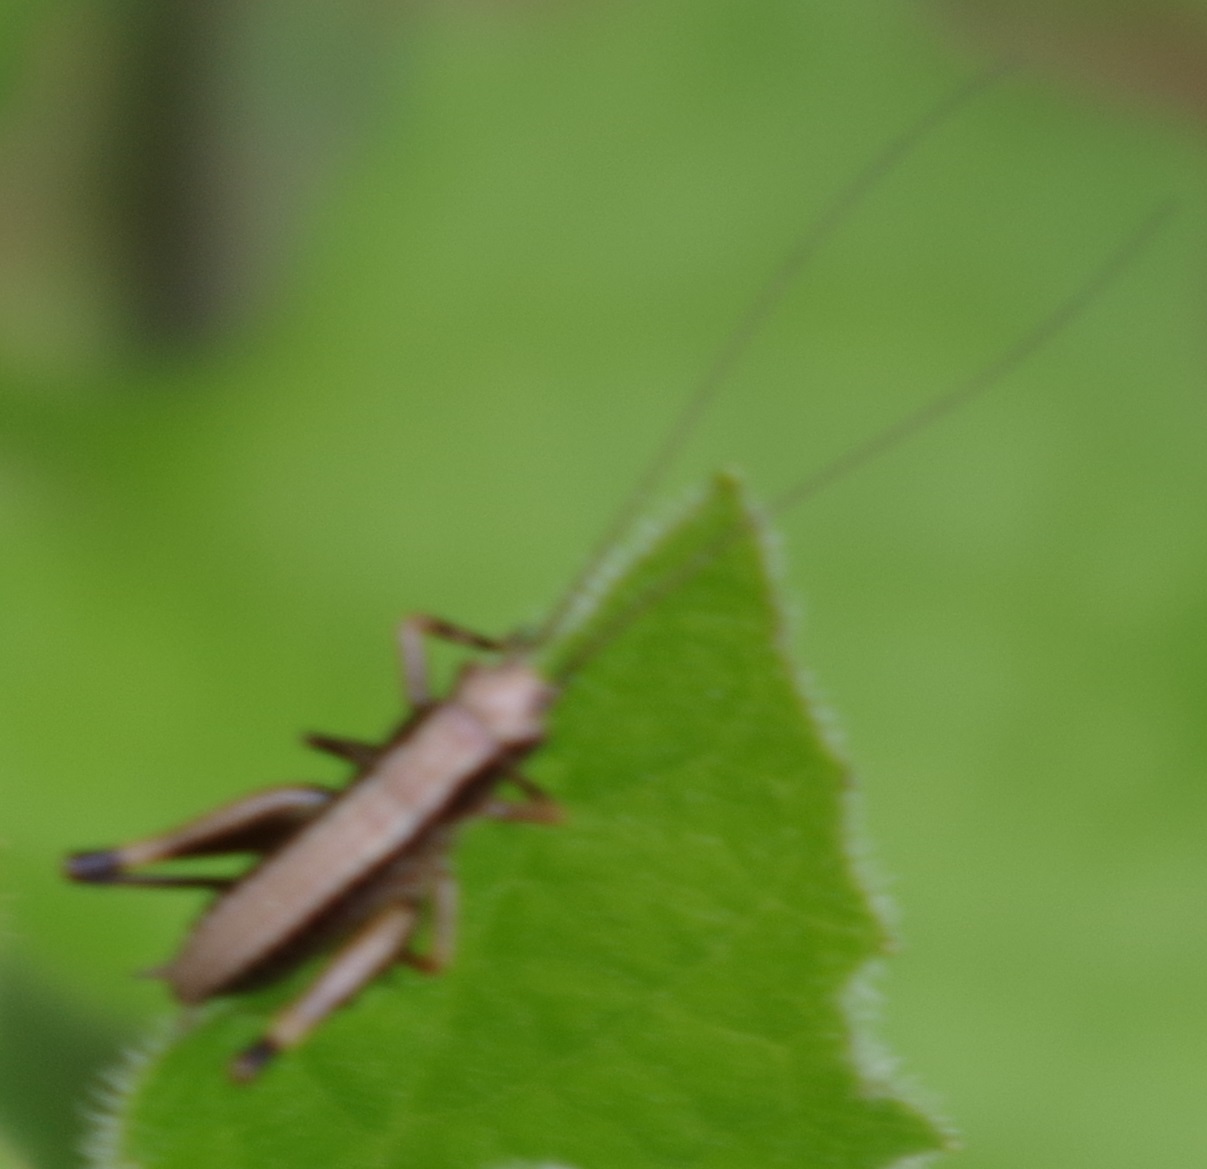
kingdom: Animalia
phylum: Arthropoda
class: Insecta
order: Orthoptera
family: Tettigoniidae
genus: Pholidoptera
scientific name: Pholidoptera griseoaptera
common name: Dark bush-cricket
